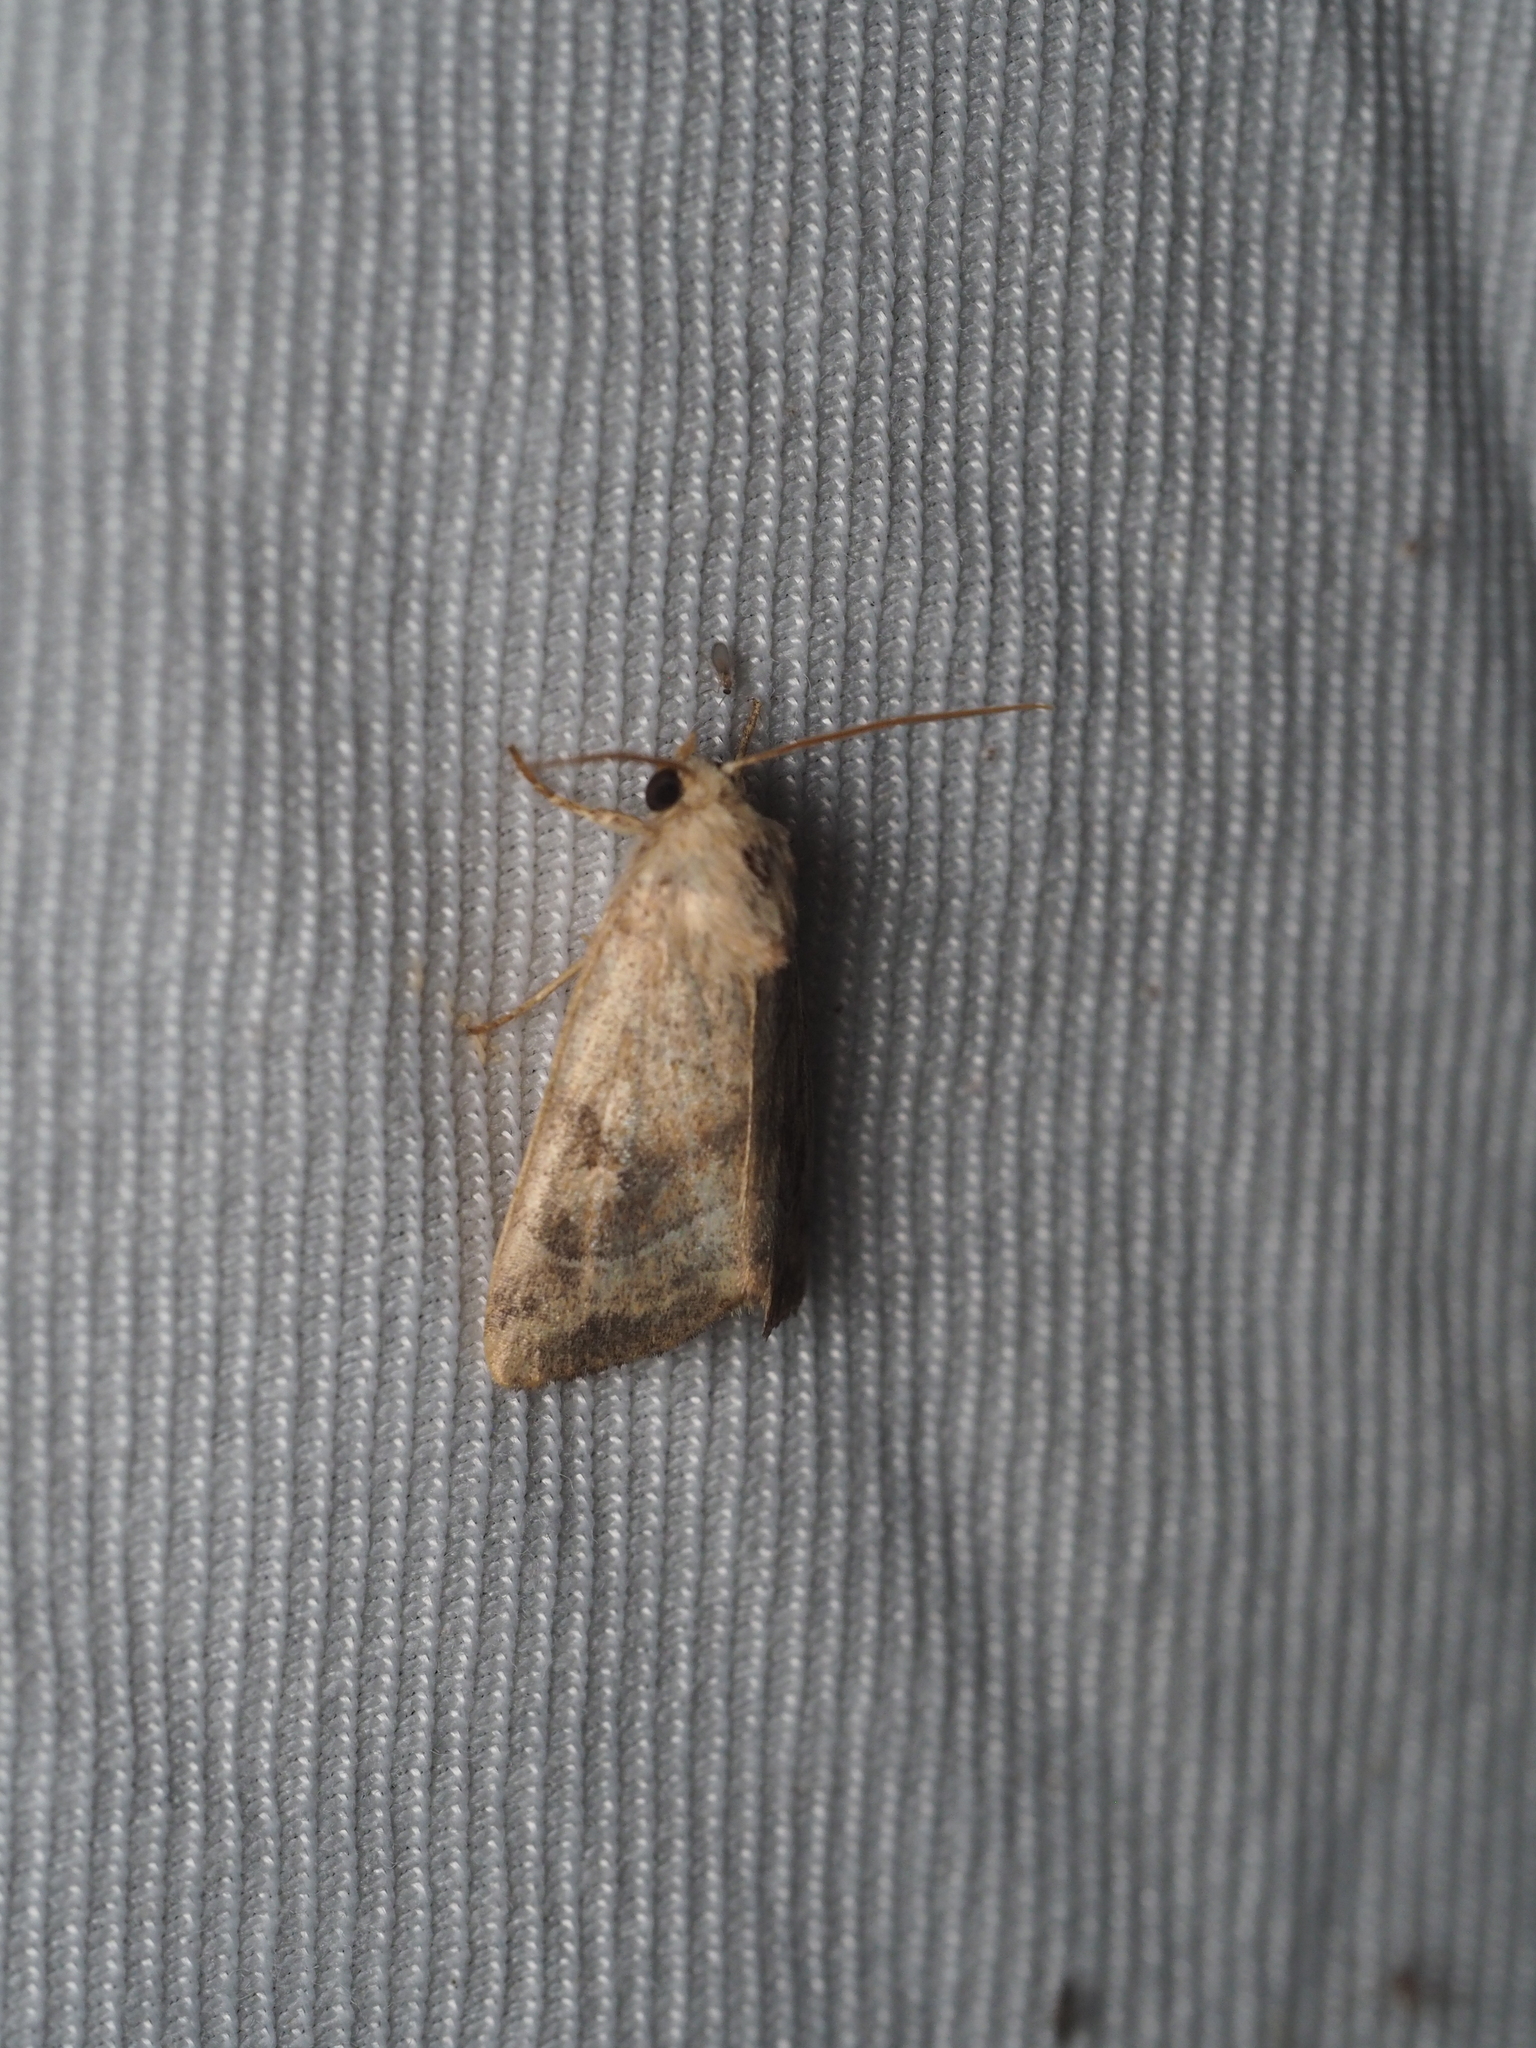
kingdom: Animalia
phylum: Arthropoda
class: Insecta
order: Lepidoptera
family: Noctuidae
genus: Cosmia
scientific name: Cosmia trapezina
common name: Dun-bar
